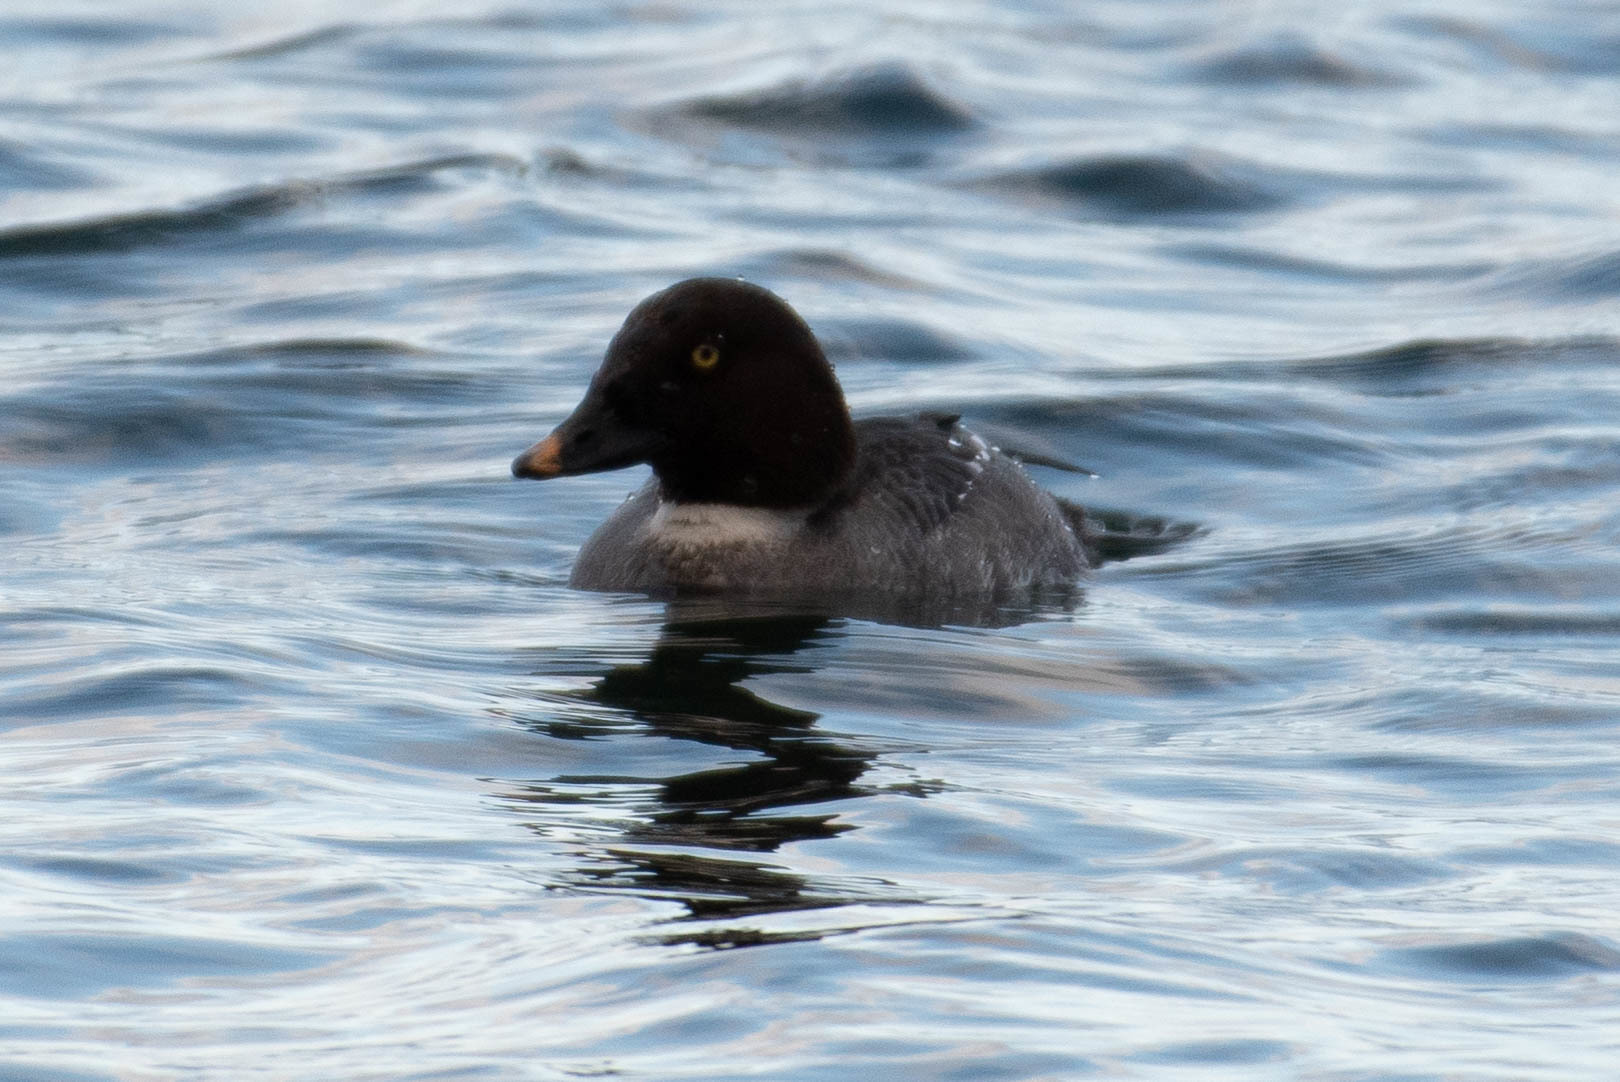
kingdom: Animalia
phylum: Chordata
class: Aves
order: Anseriformes
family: Anatidae
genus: Bucephala
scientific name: Bucephala clangula
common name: Common goldeneye
